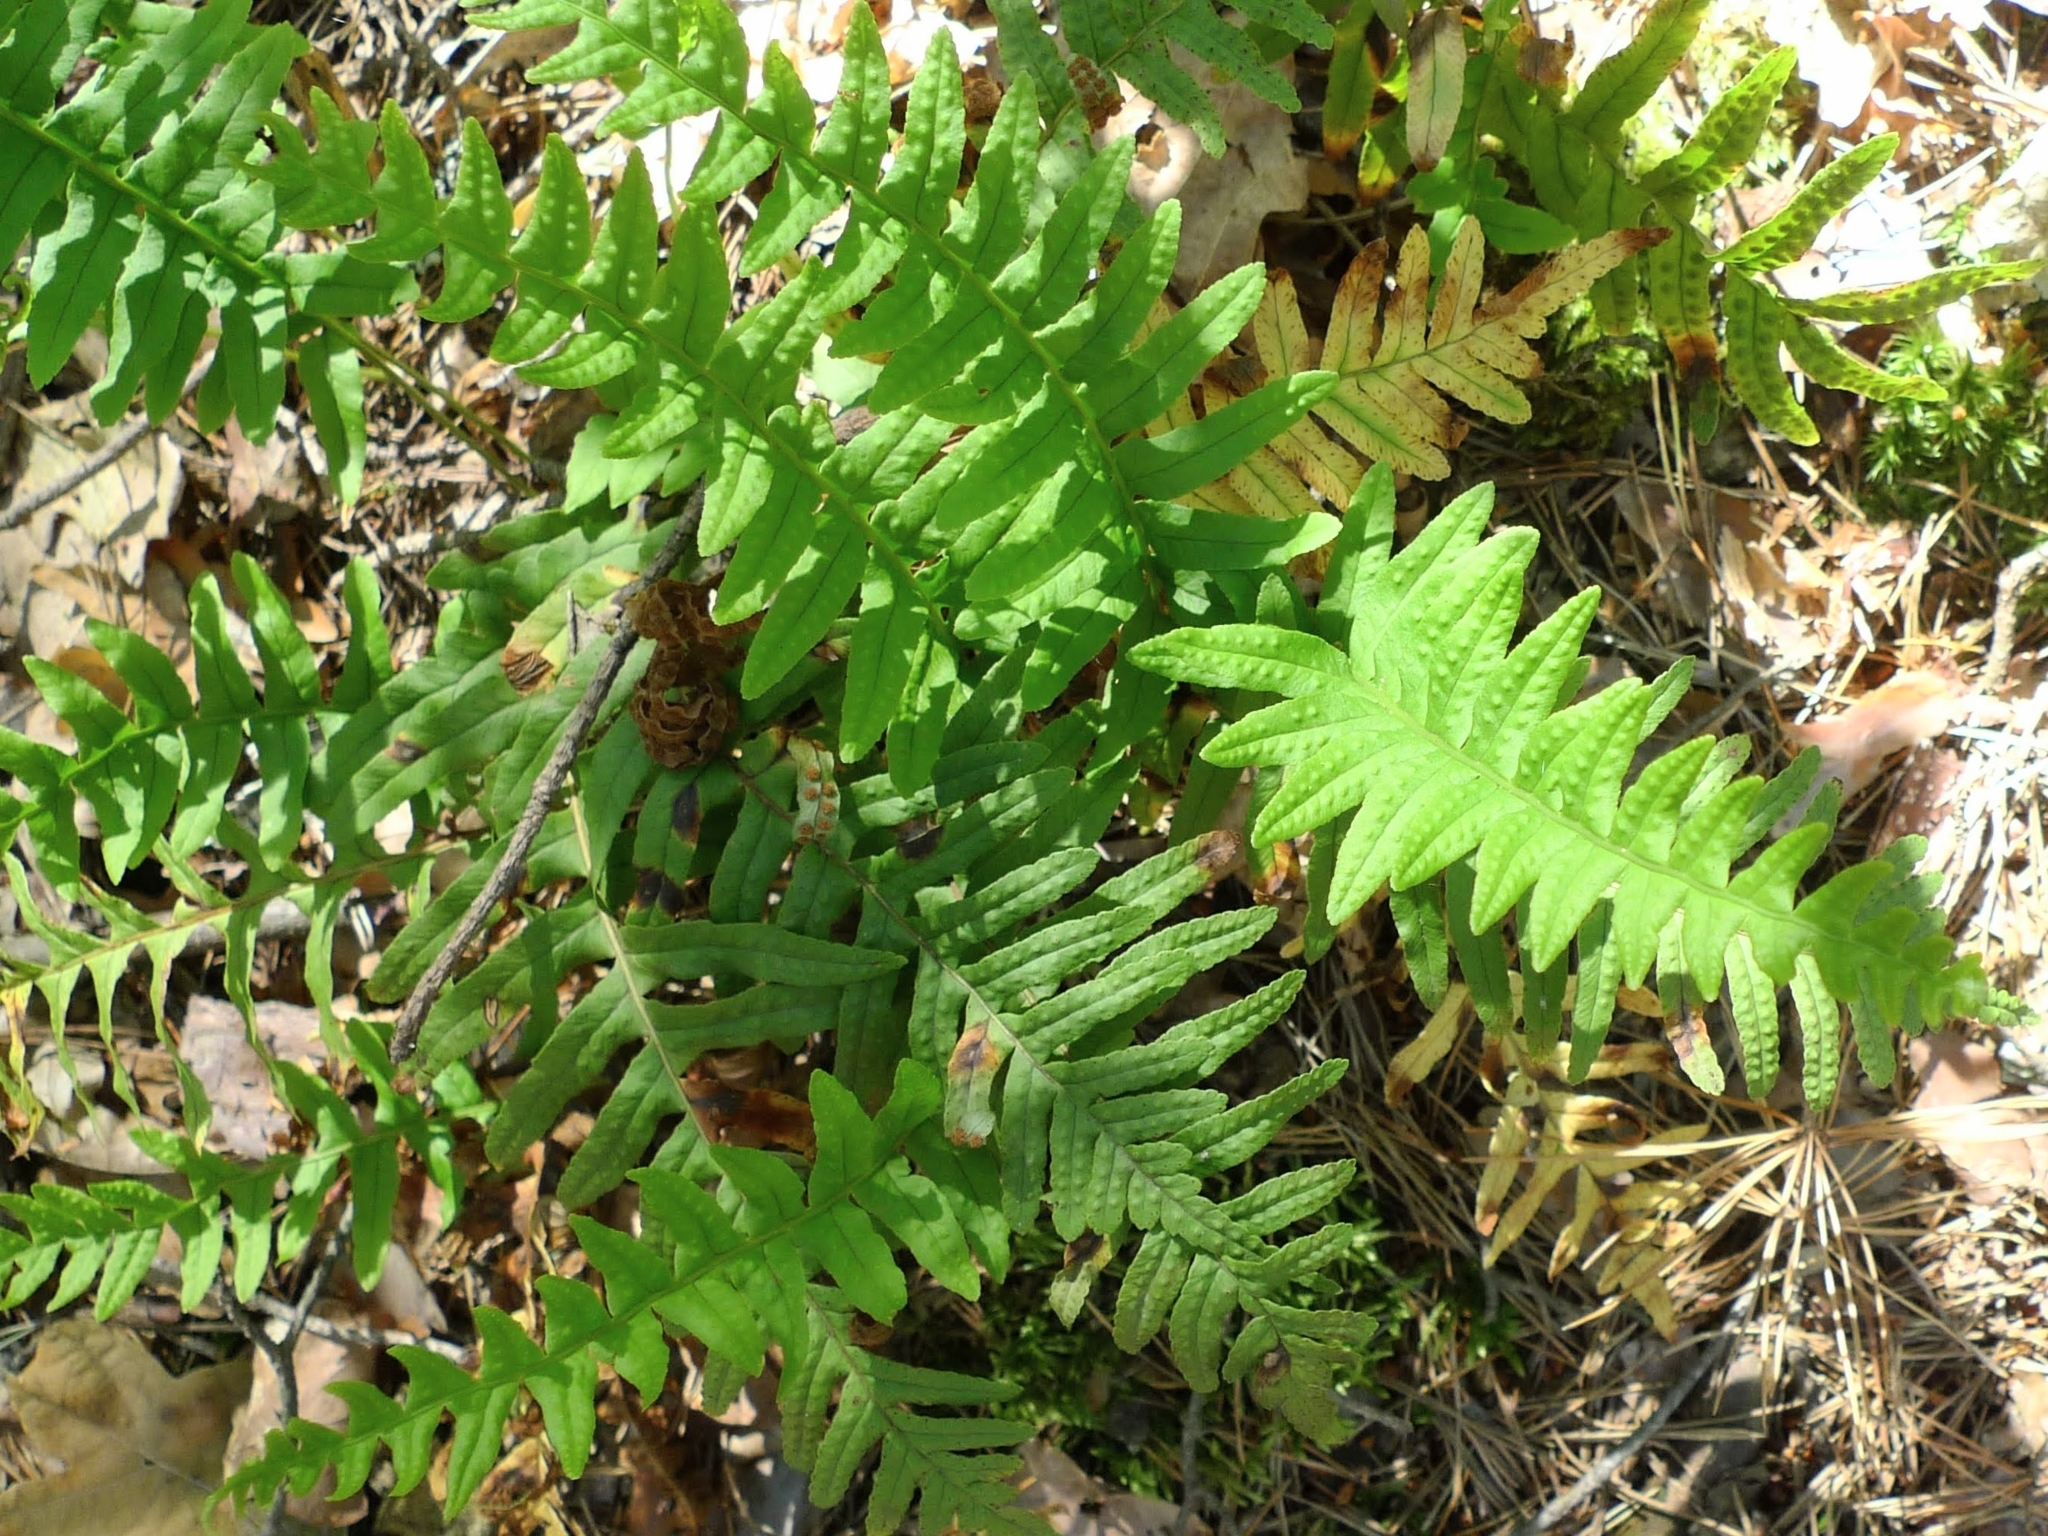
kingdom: Plantae
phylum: Tracheophyta
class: Polypodiopsida
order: Polypodiales
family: Polypodiaceae
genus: Polypodium
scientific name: Polypodium vulgare
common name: Common polypody
